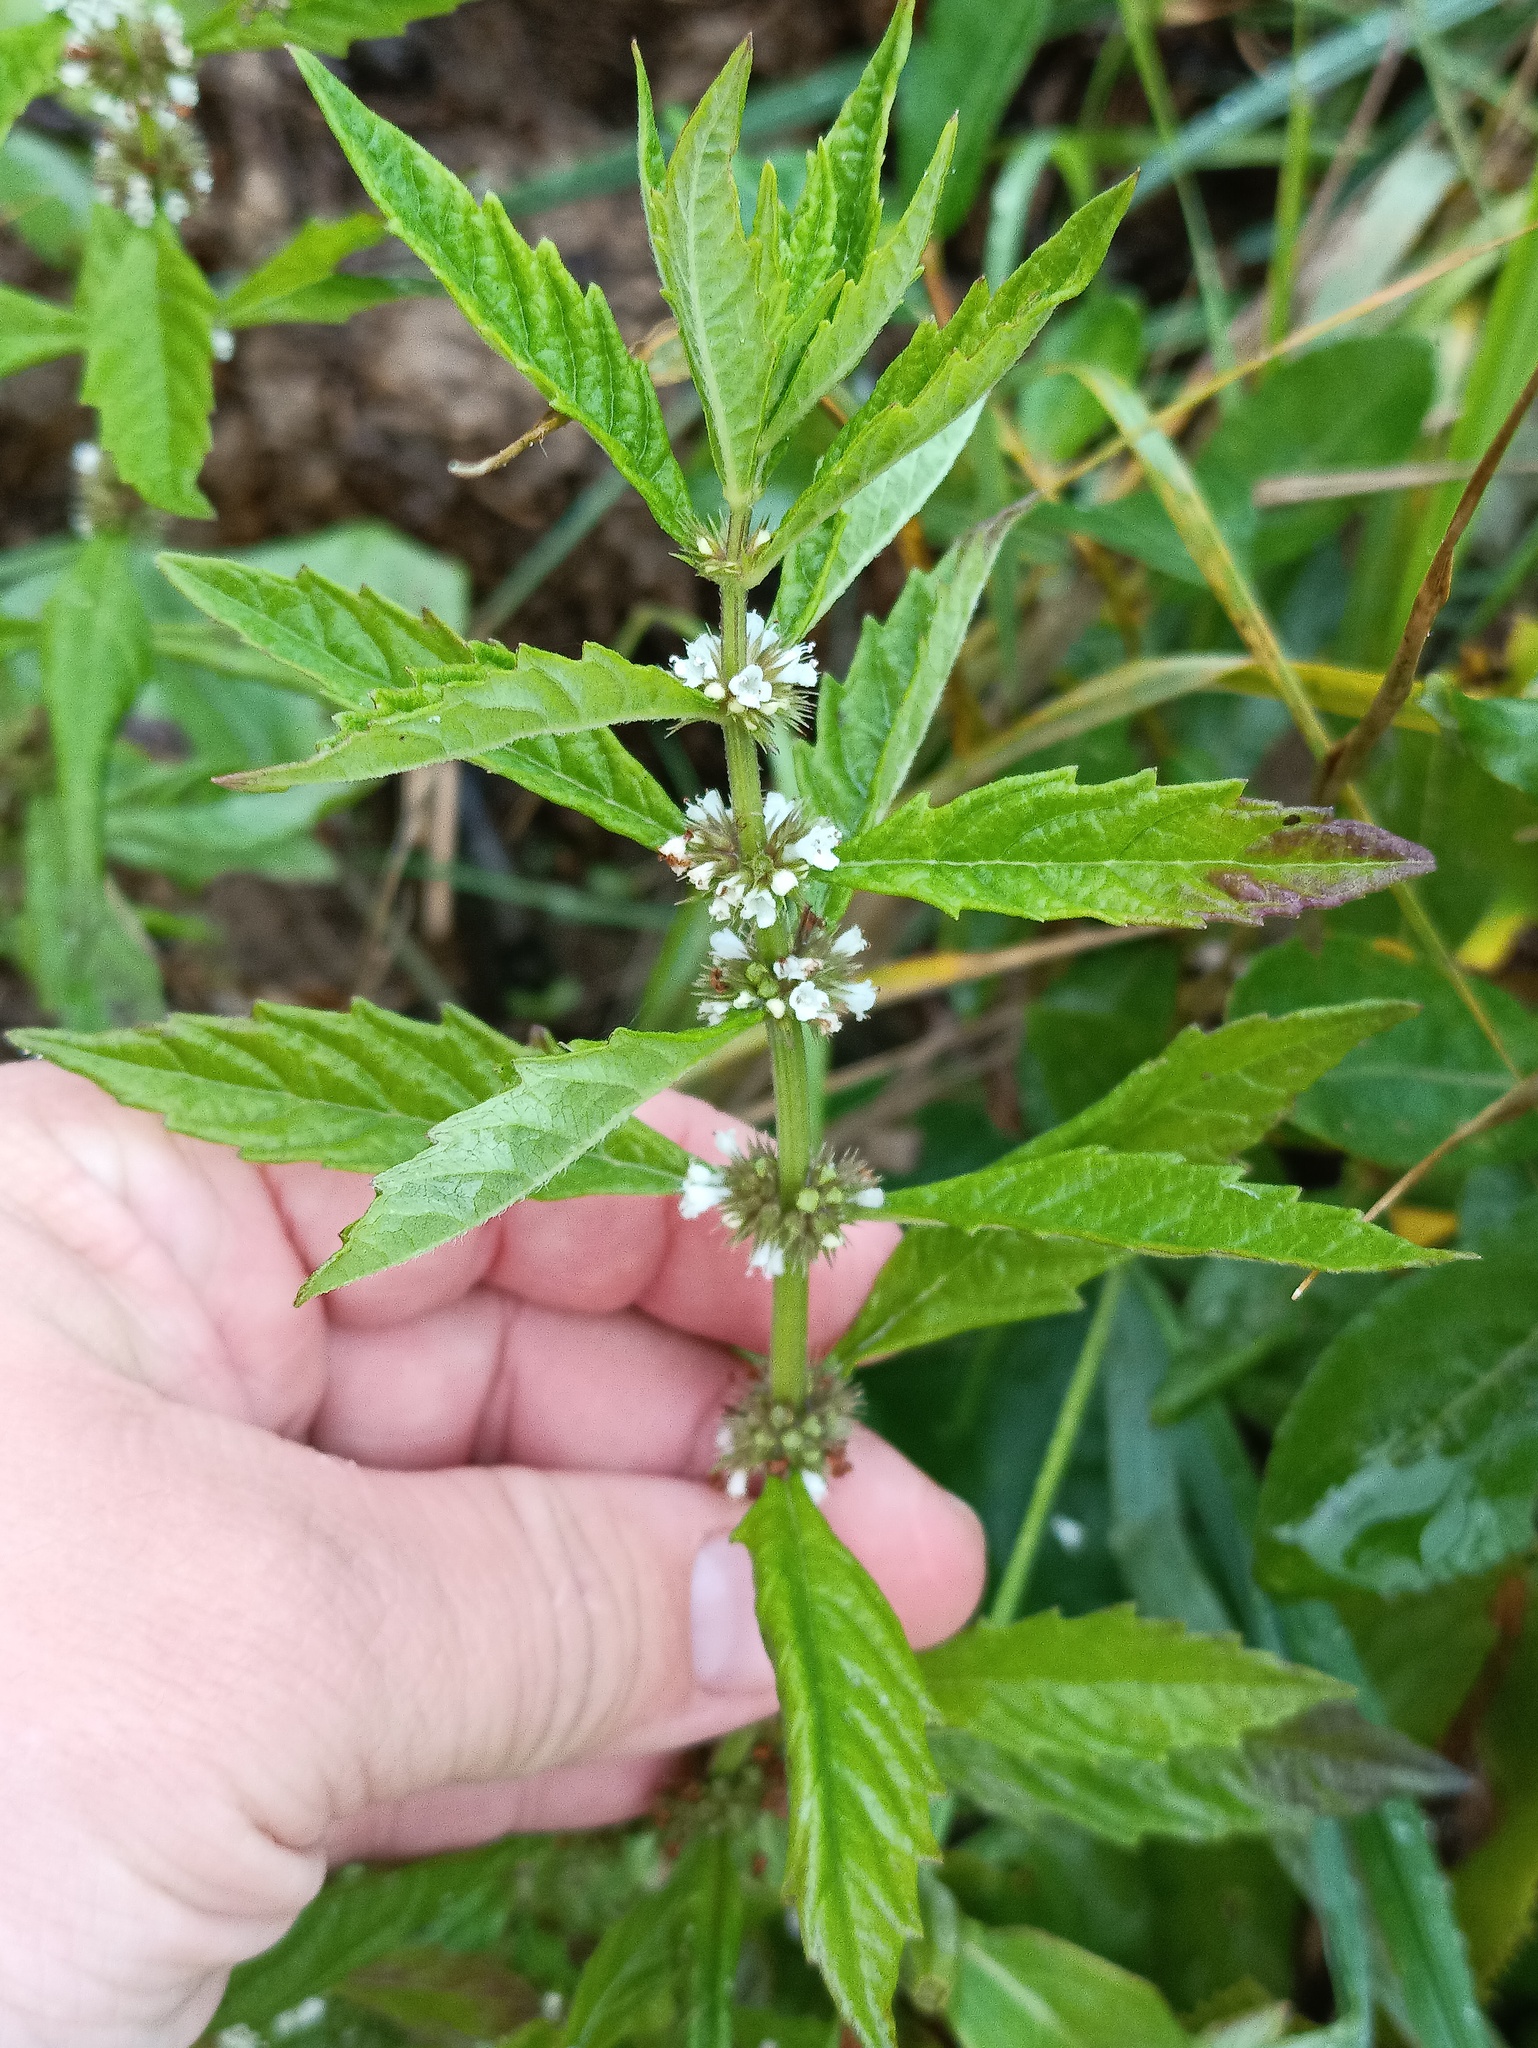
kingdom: Plantae
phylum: Tracheophyta
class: Magnoliopsida
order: Lamiales
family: Lamiaceae
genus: Lycopus
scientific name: Lycopus europaeus
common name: European bugleweed
